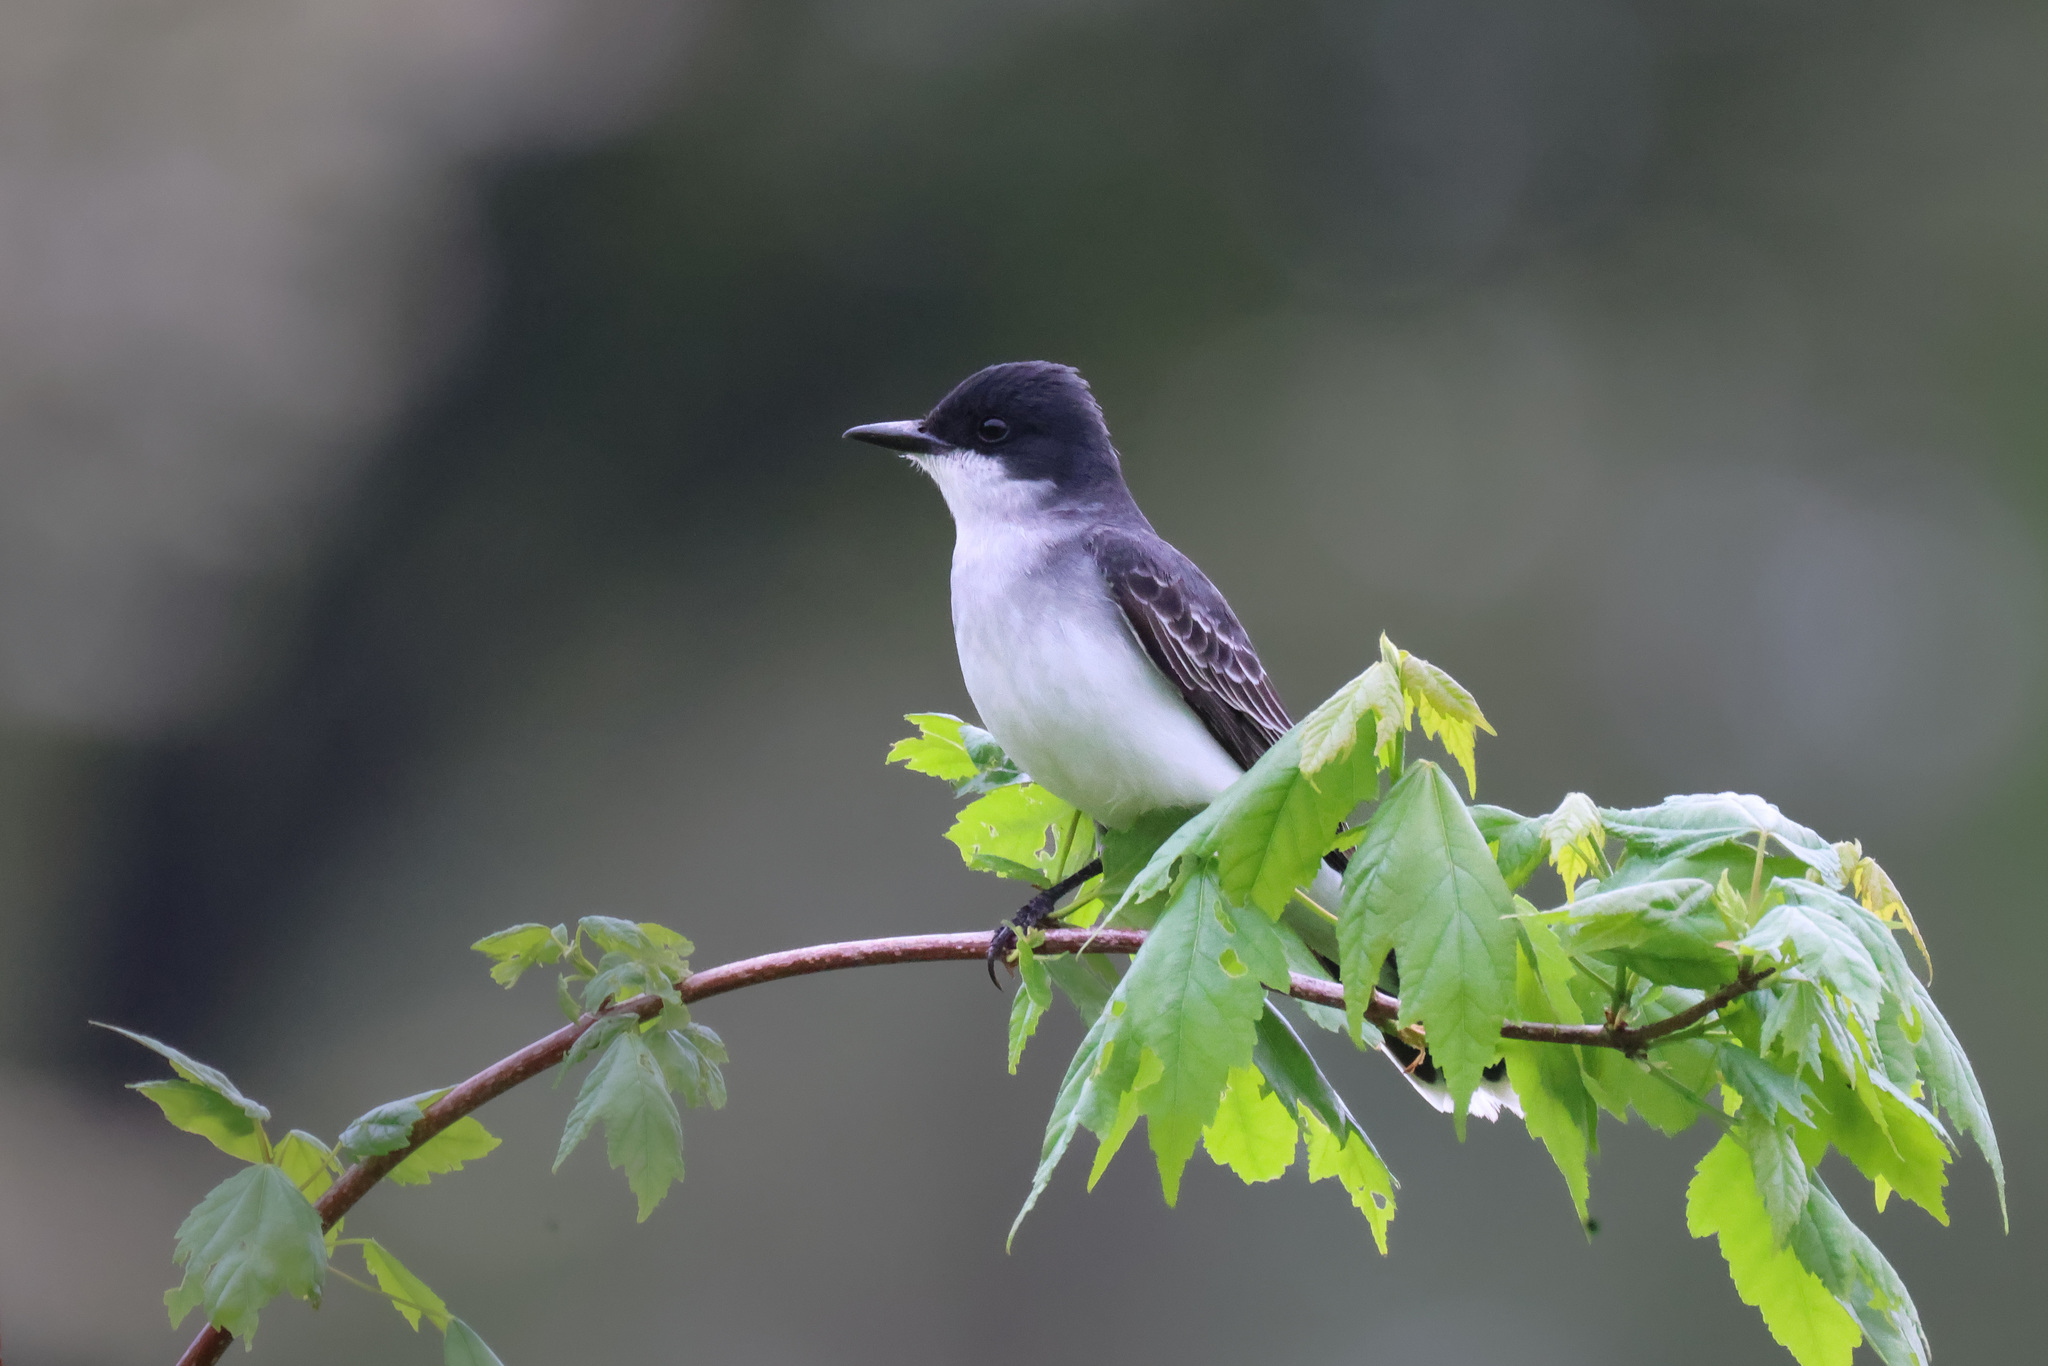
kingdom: Animalia
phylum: Chordata
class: Aves
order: Passeriformes
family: Tyrannidae
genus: Tyrannus
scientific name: Tyrannus tyrannus
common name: Eastern kingbird
